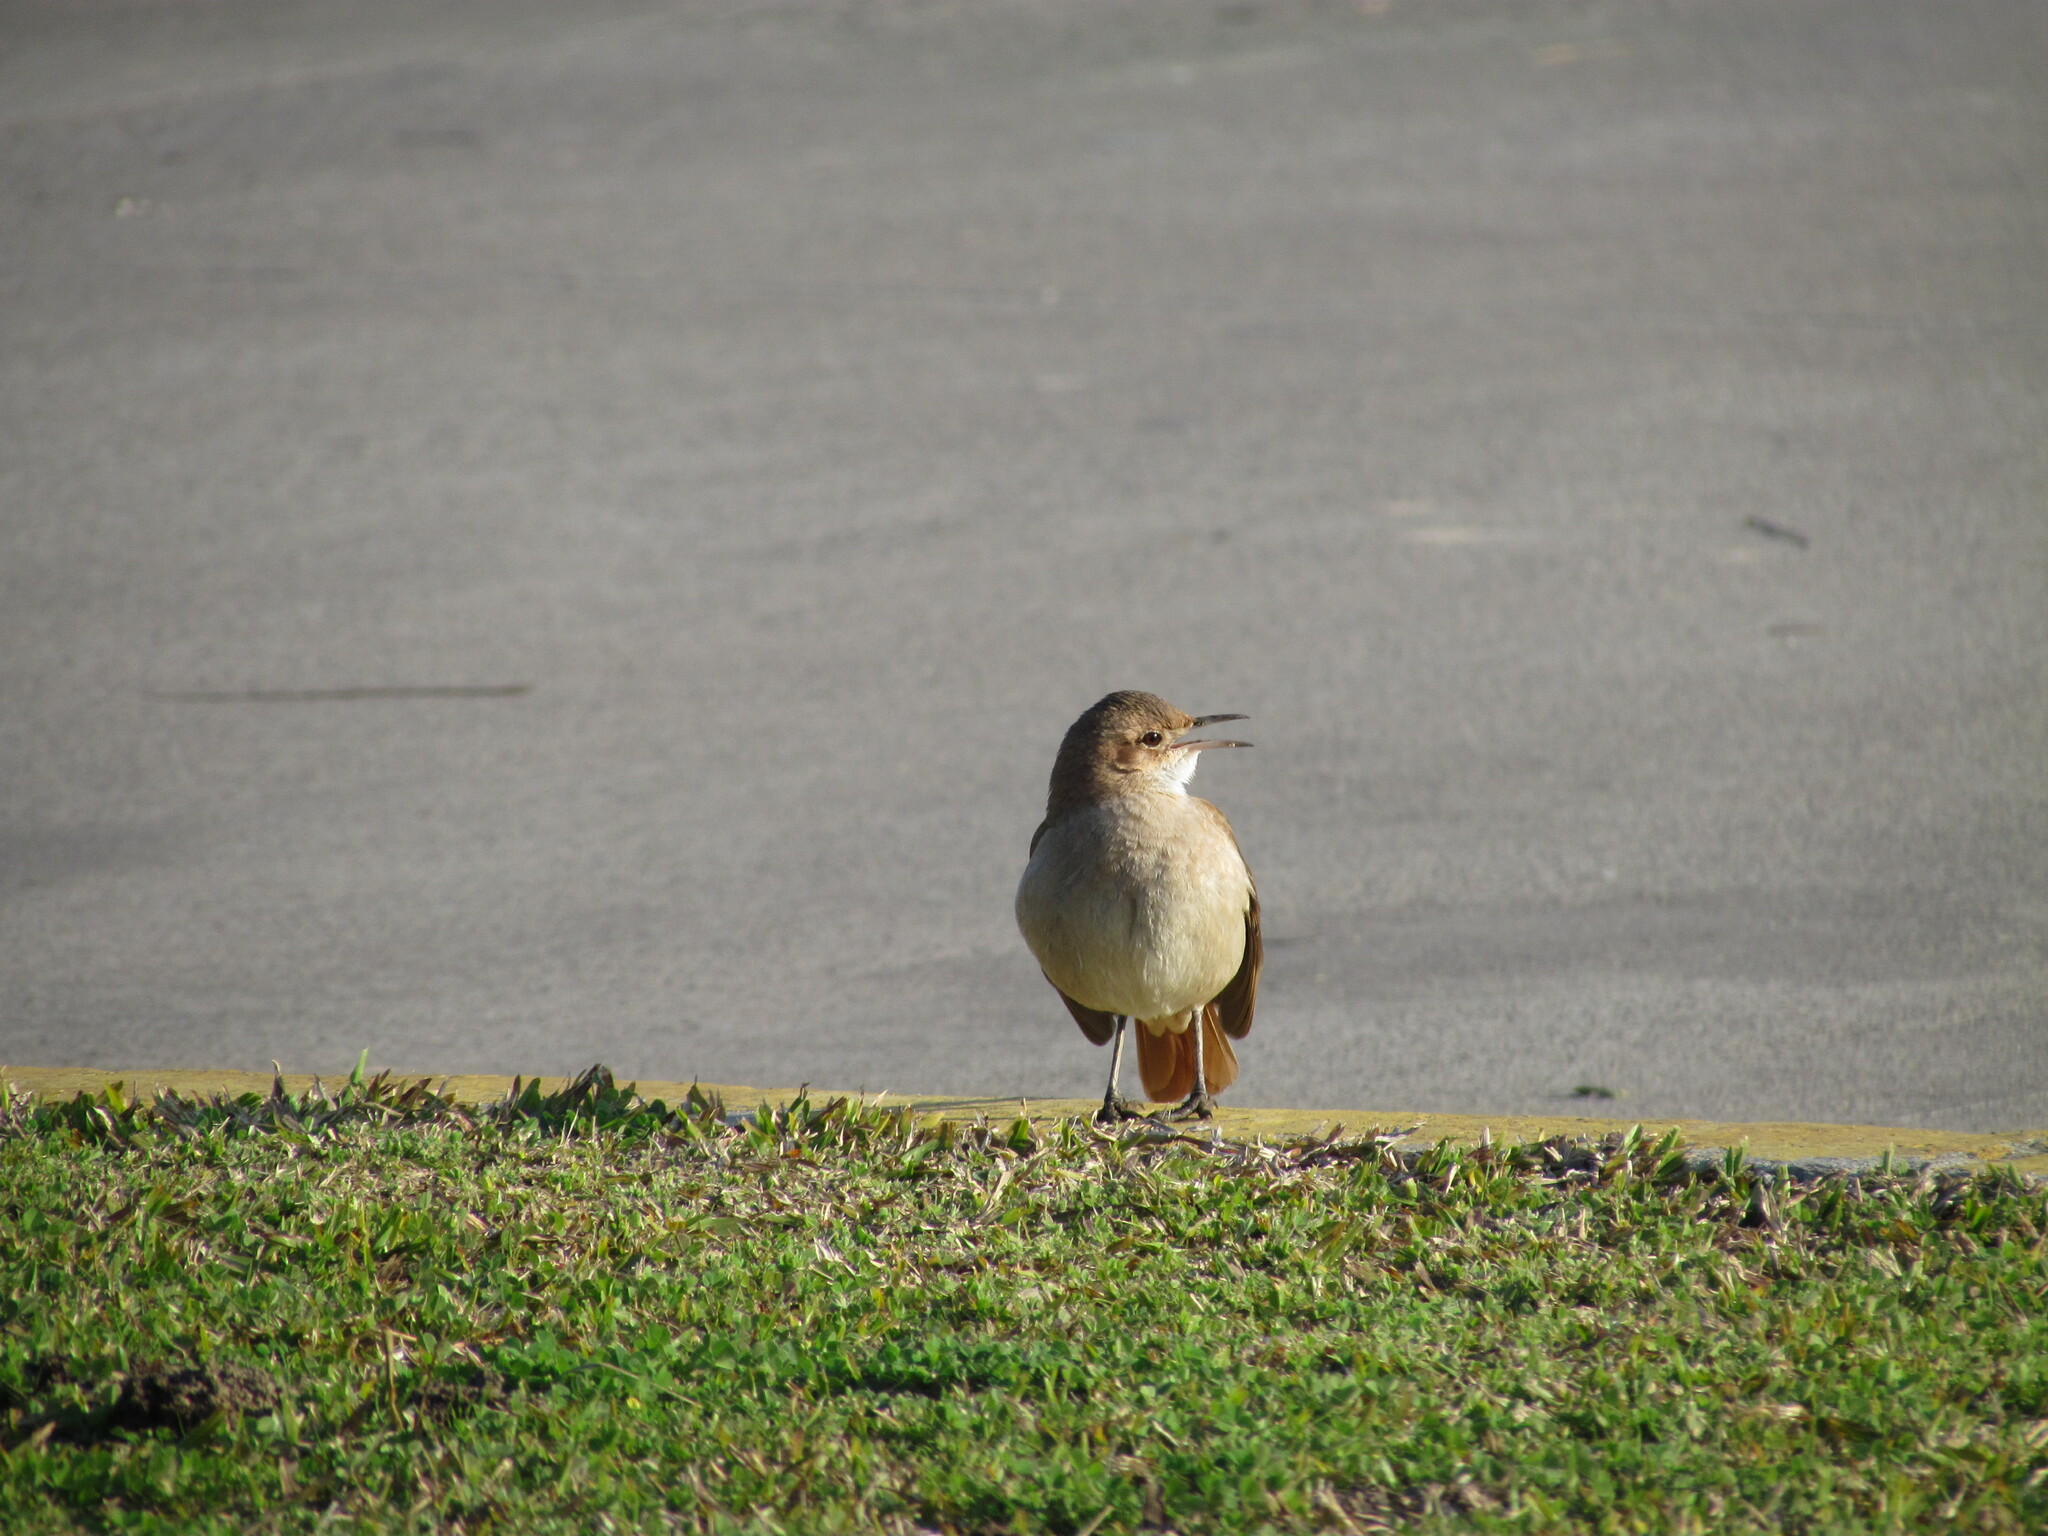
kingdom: Animalia
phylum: Chordata
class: Aves
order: Passeriformes
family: Furnariidae
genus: Furnarius
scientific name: Furnarius rufus
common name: Rufous hornero
